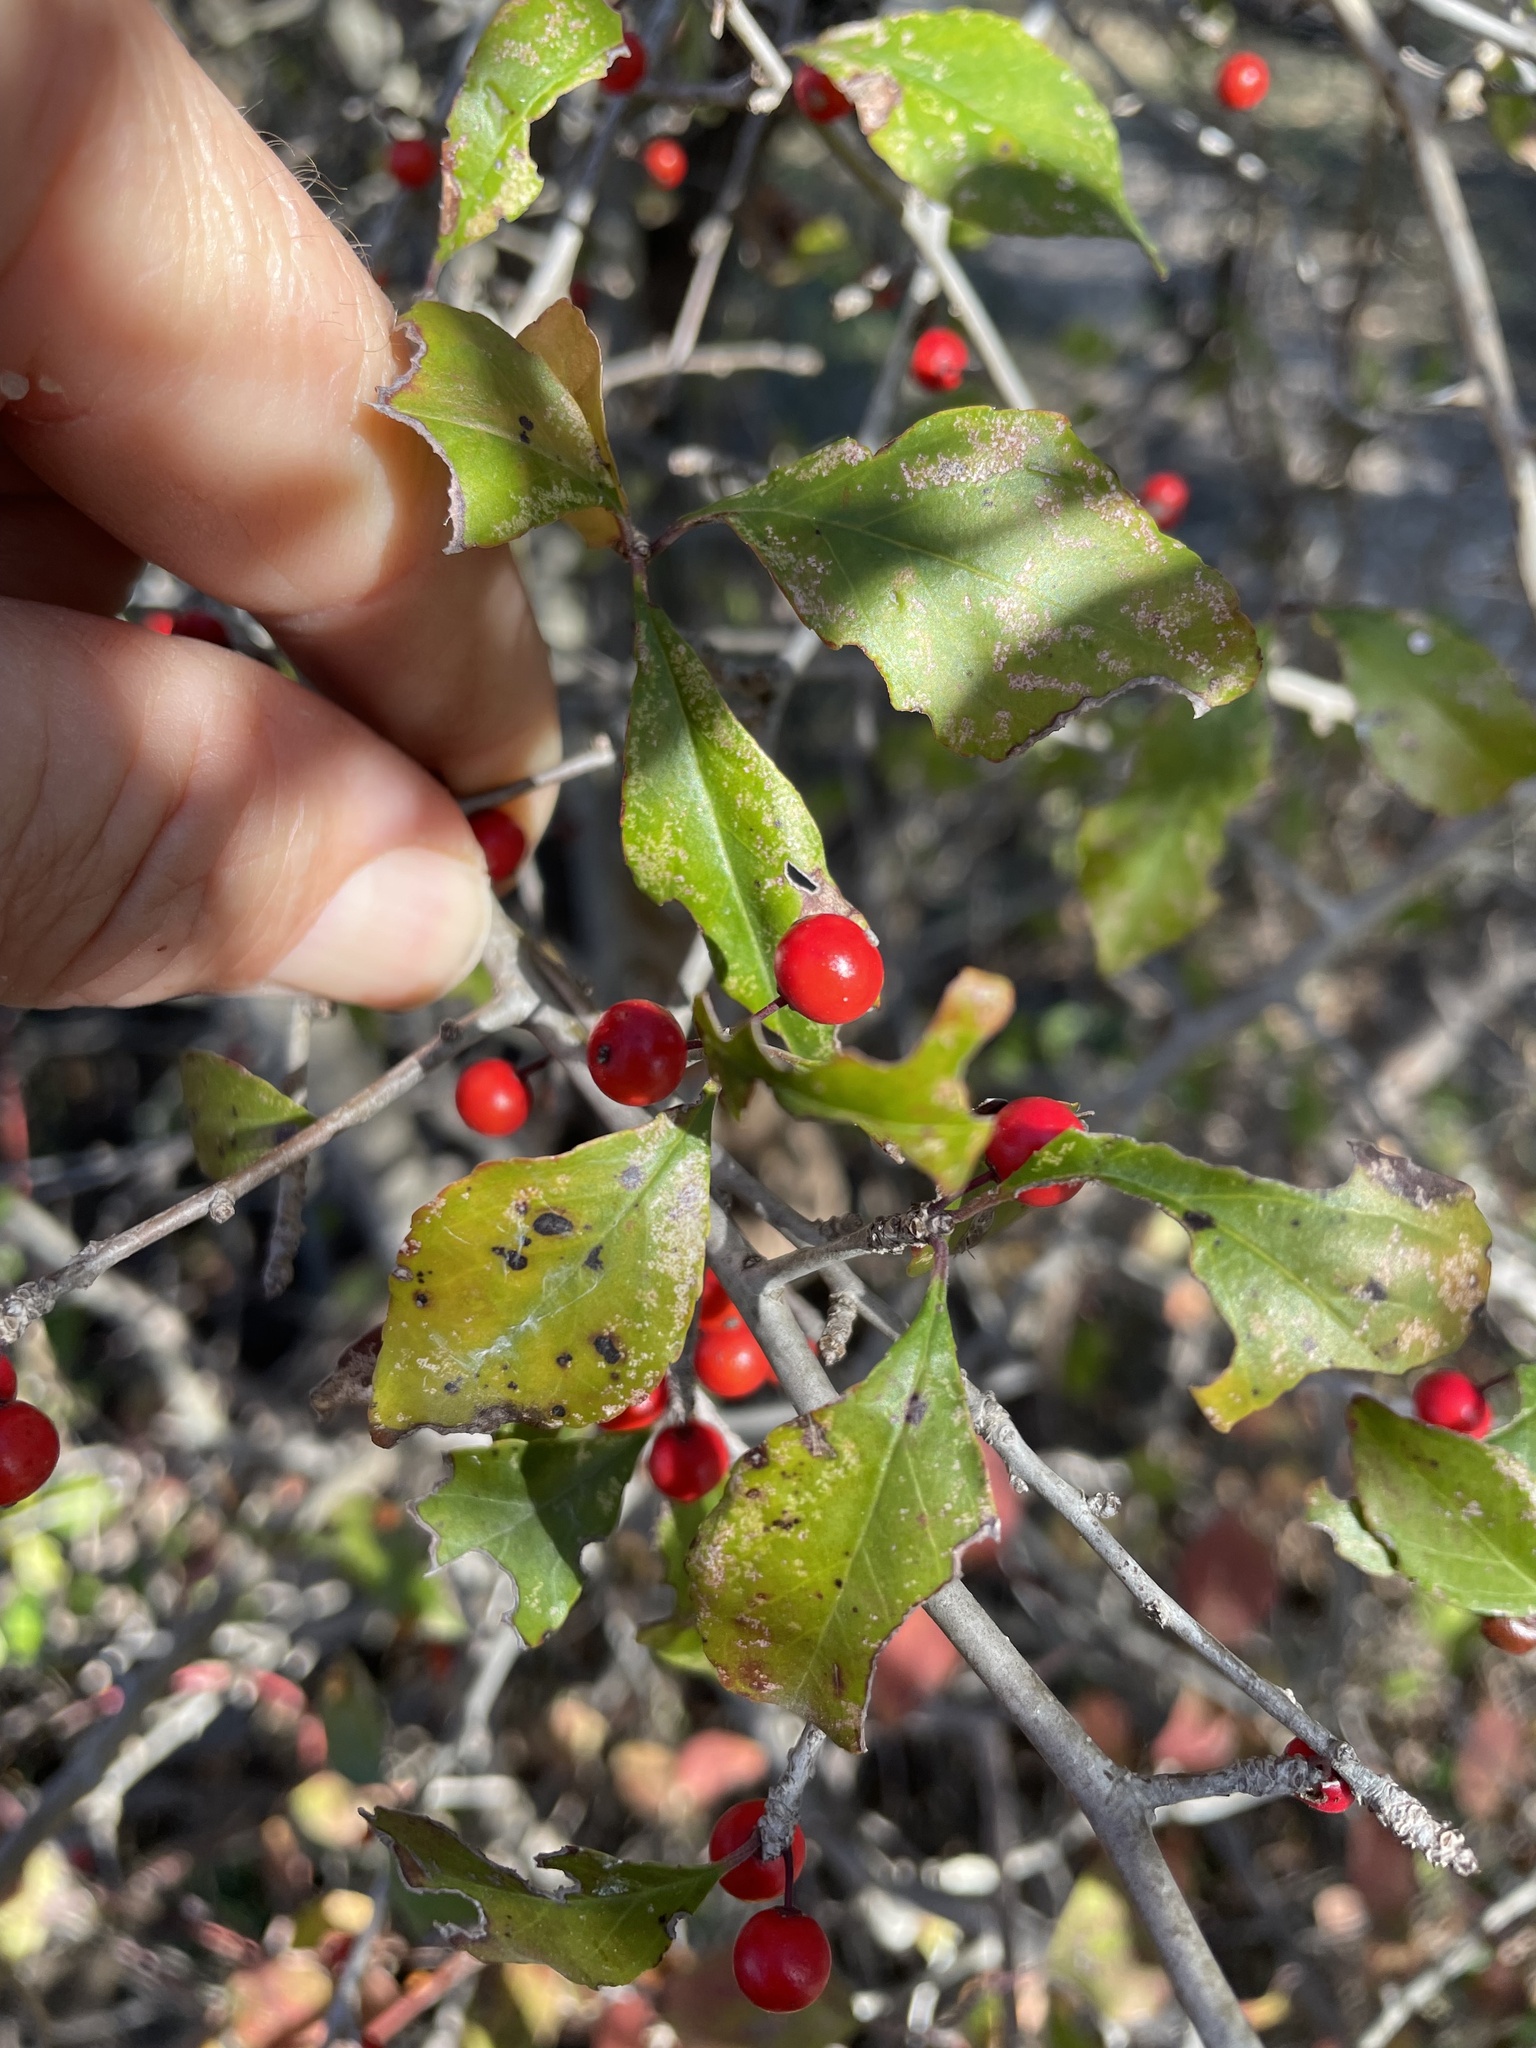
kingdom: Plantae
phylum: Tracheophyta
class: Magnoliopsida
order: Aquifoliales
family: Aquifoliaceae
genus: Ilex
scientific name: Ilex decidua
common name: Possum-haw
